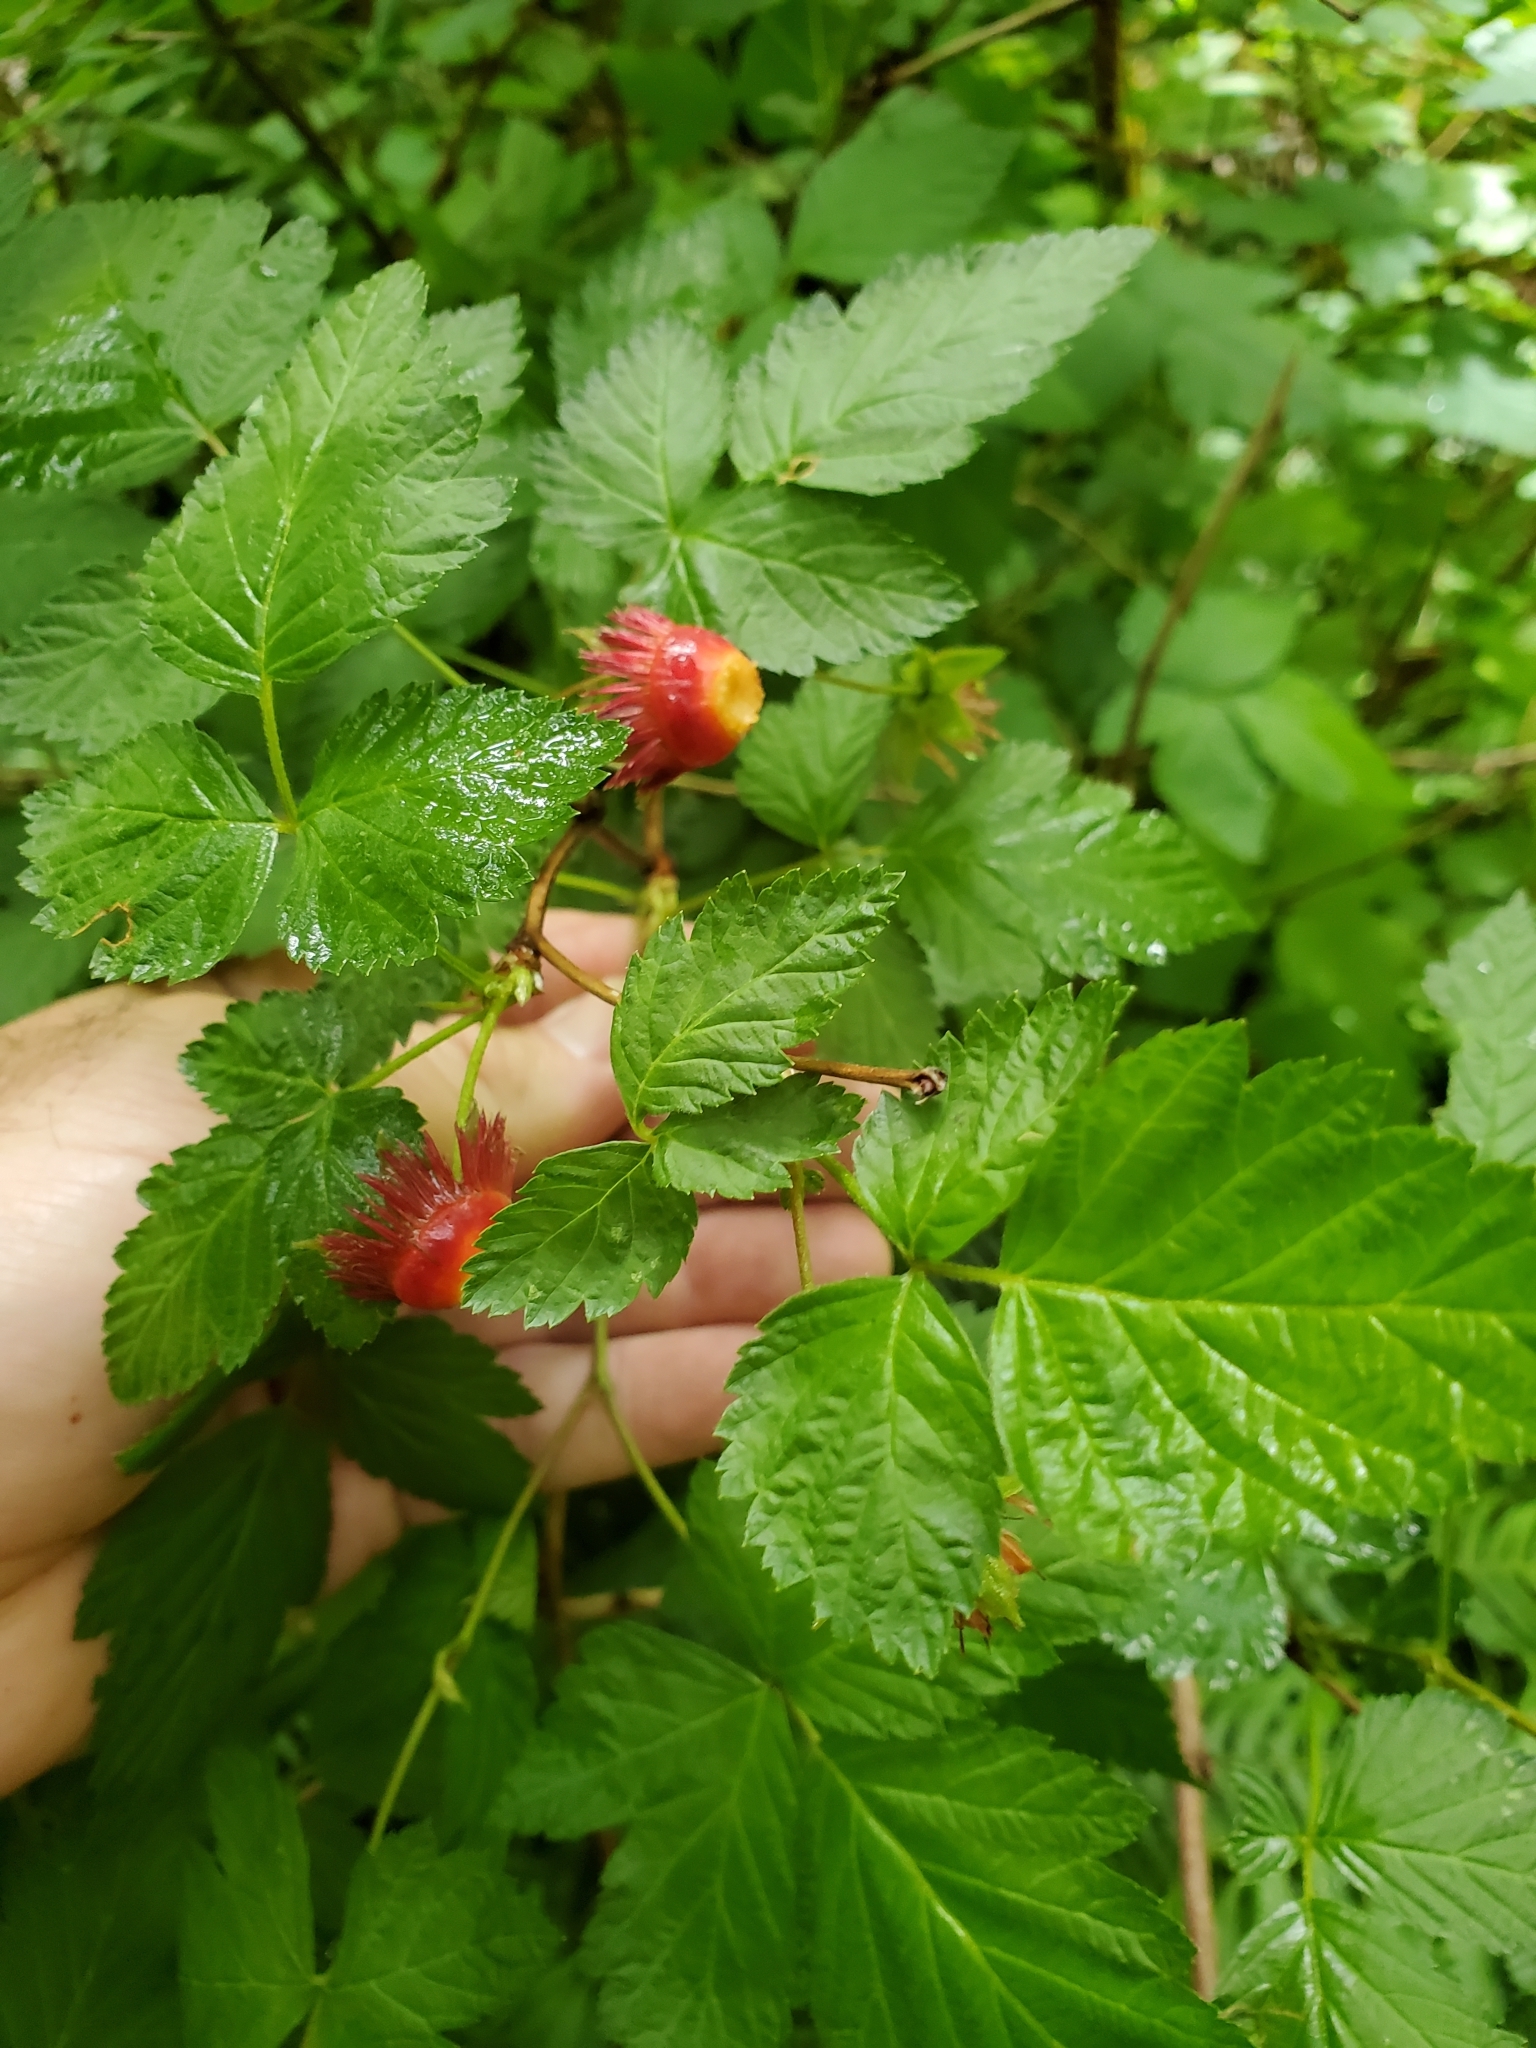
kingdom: Plantae
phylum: Tracheophyta
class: Magnoliopsida
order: Rosales
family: Rosaceae
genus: Rubus
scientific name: Rubus spectabilis
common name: Salmonberry
